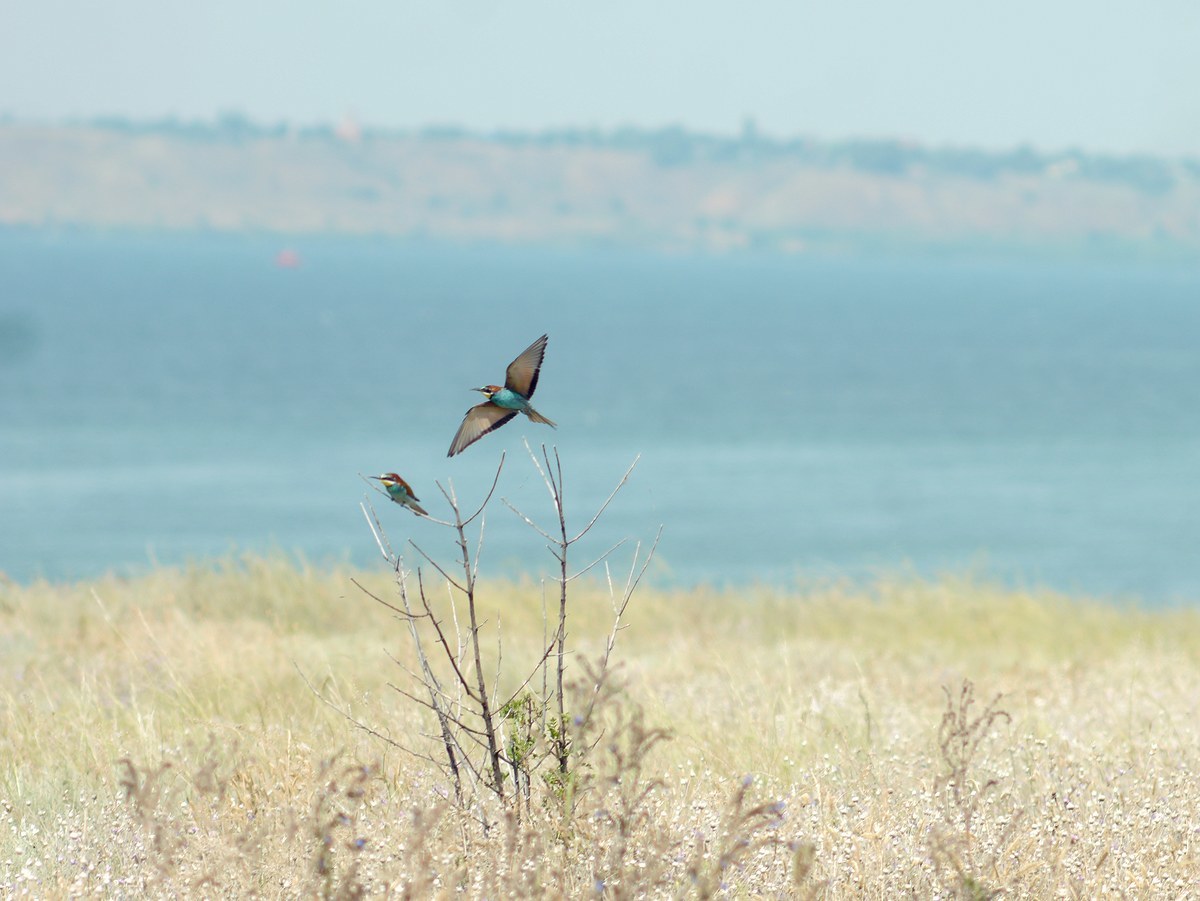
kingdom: Animalia
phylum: Chordata
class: Aves
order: Coraciiformes
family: Meropidae
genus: Merops
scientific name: Merops apiaster
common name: European bee-eater
